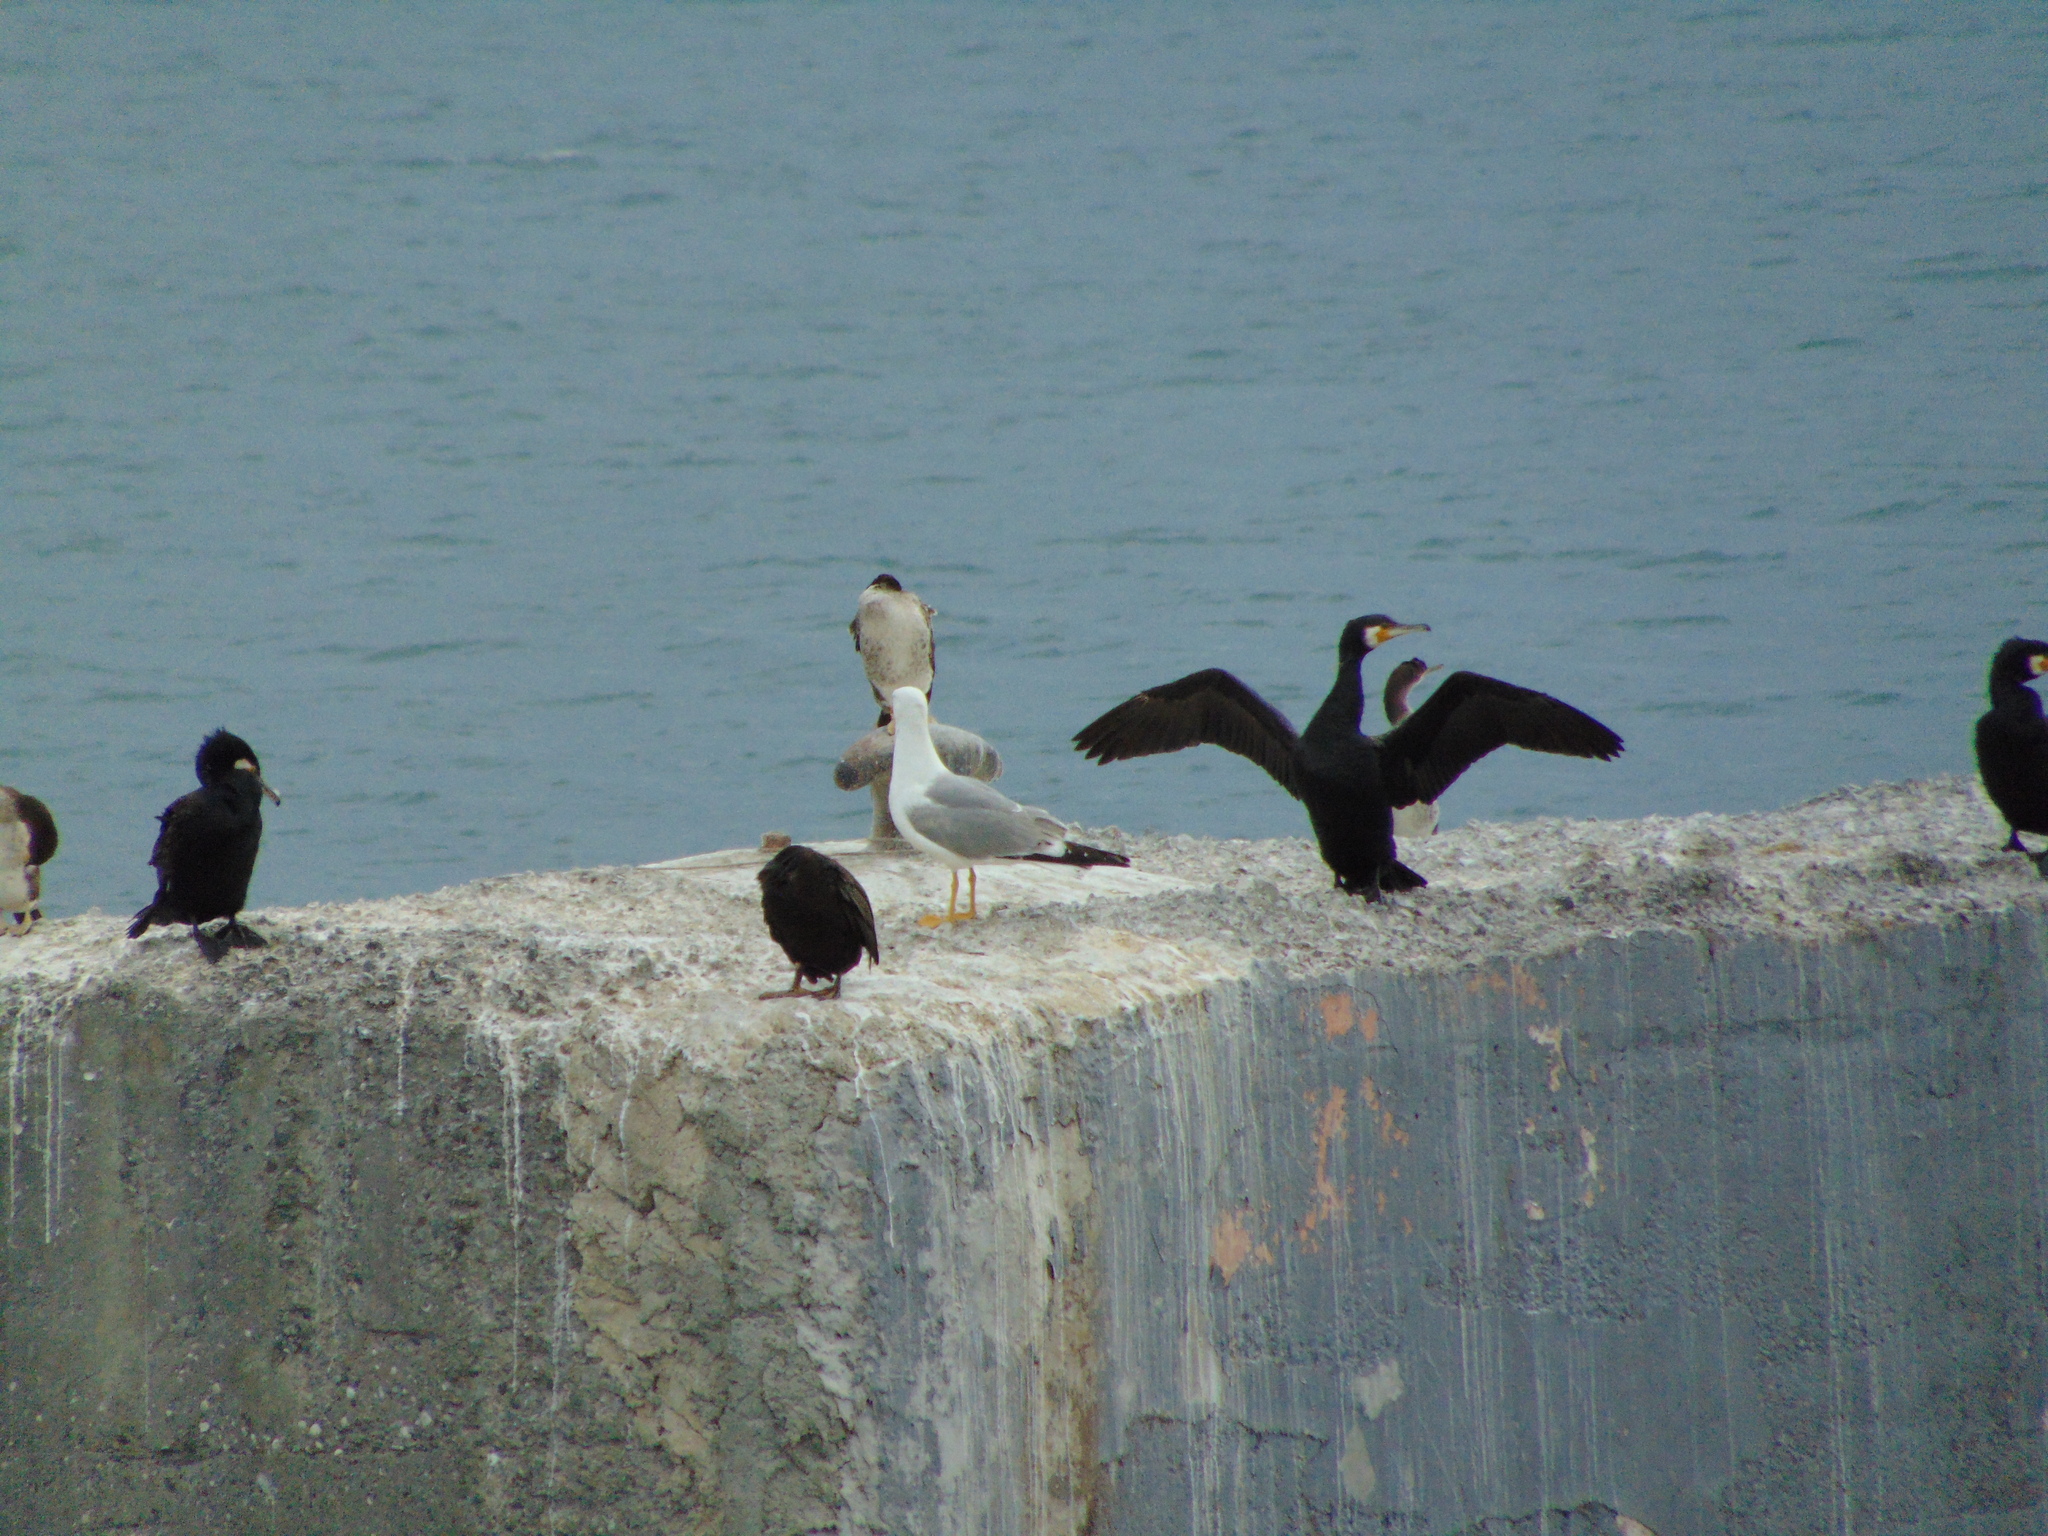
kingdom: Animalia
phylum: Chordata
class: Aves
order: Suliformes
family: Phalacrocoracidae
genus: Phalacrocorax
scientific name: Phalacrocorax carbo
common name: Great cormorant
